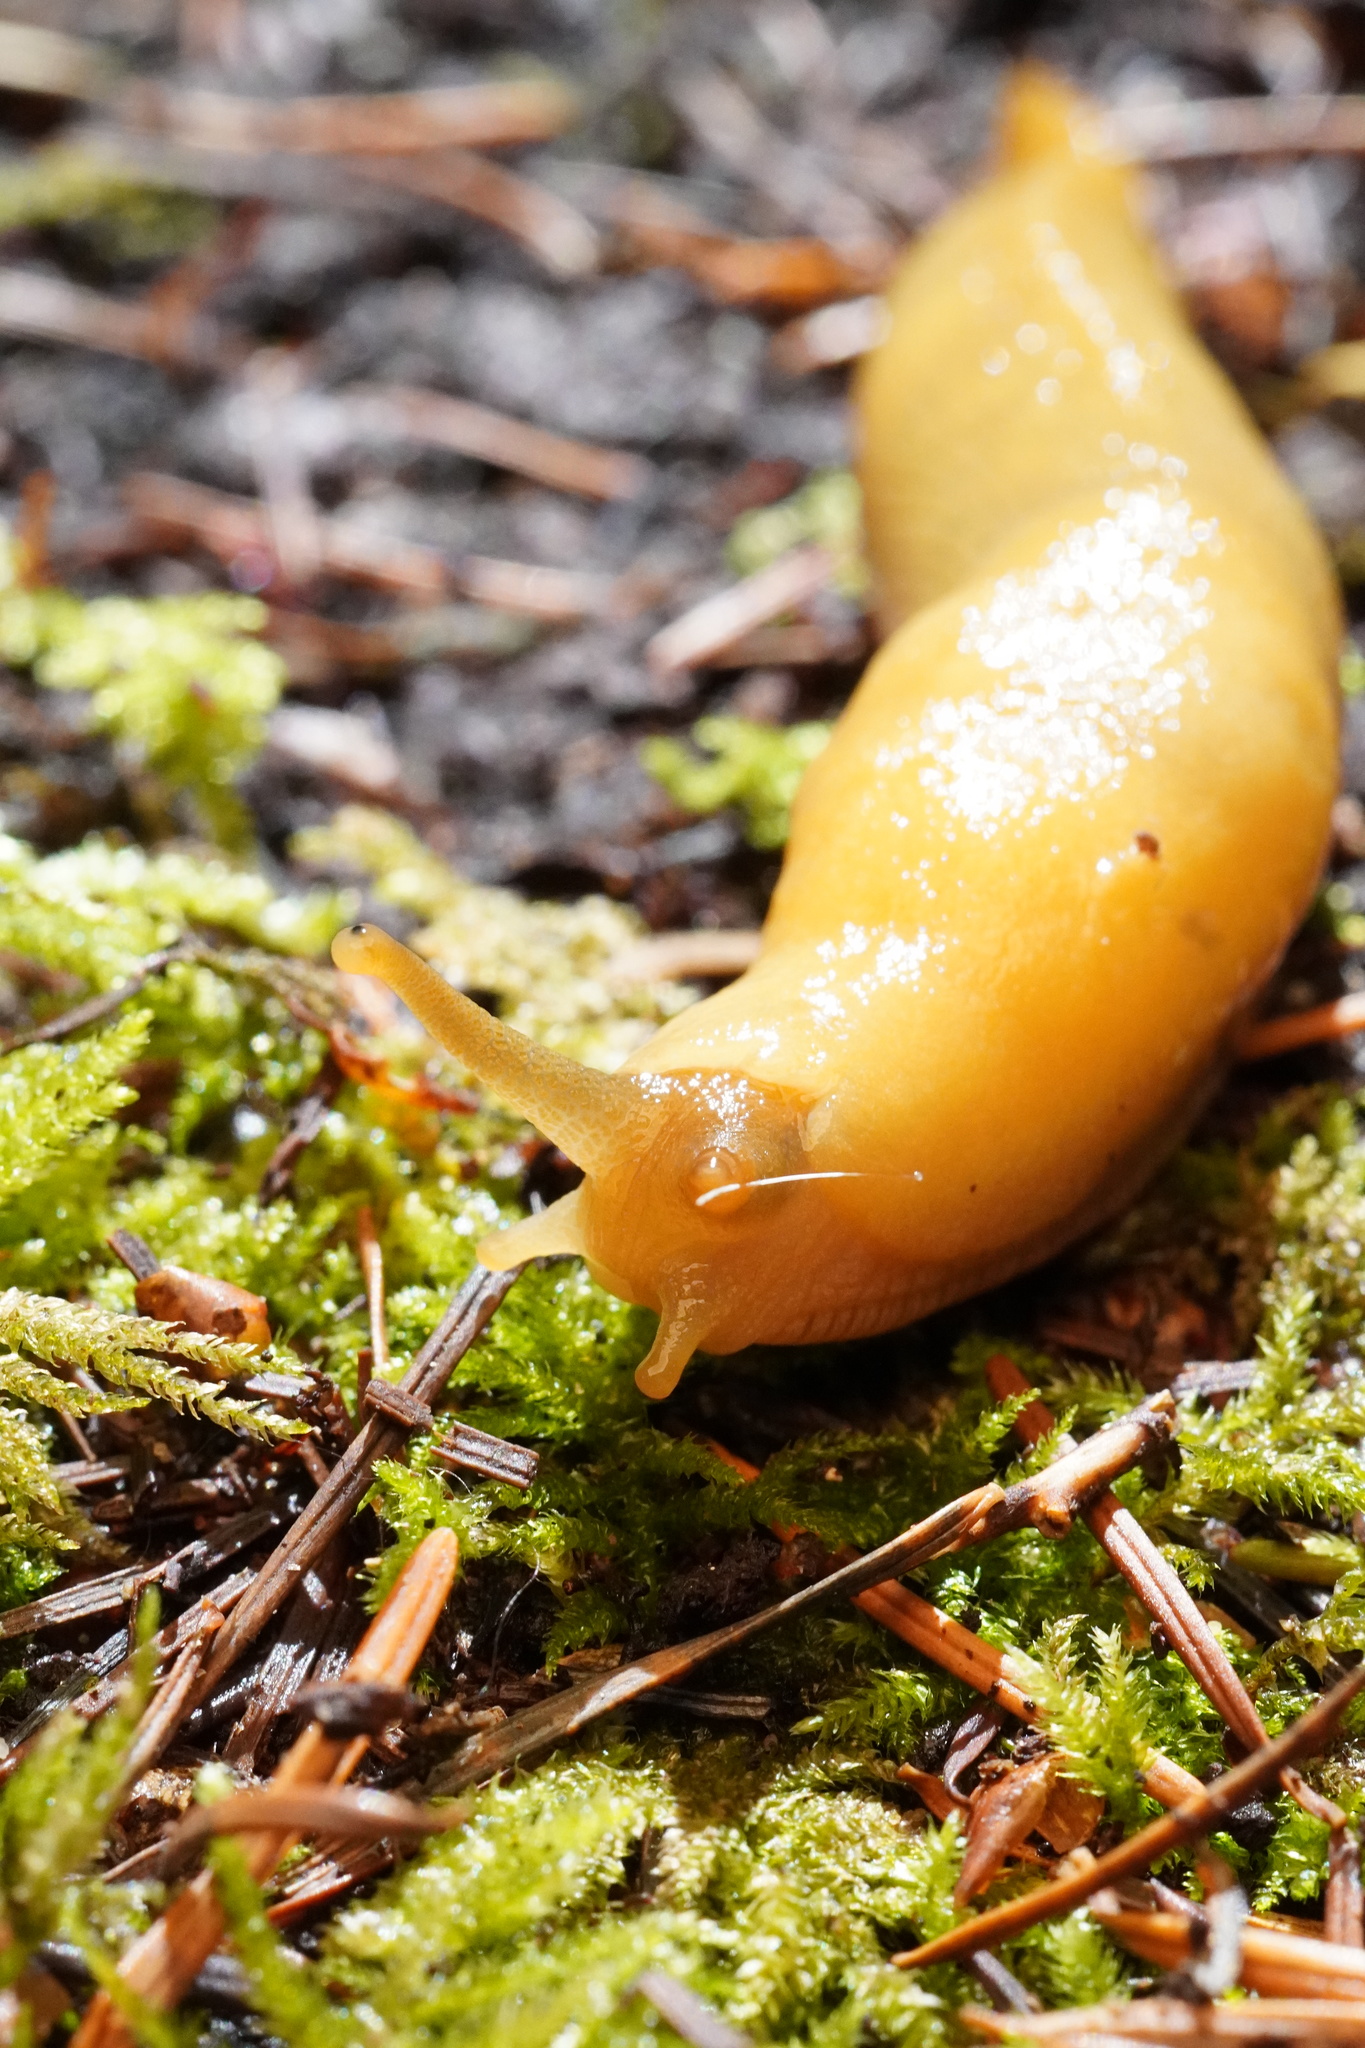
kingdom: Animalia
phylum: Mollusca
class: Gastropoda
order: Stylommatophora
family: Ariolimacidae
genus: Ariolimax
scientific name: Ariolimax columbianus
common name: Pacific banana slug
